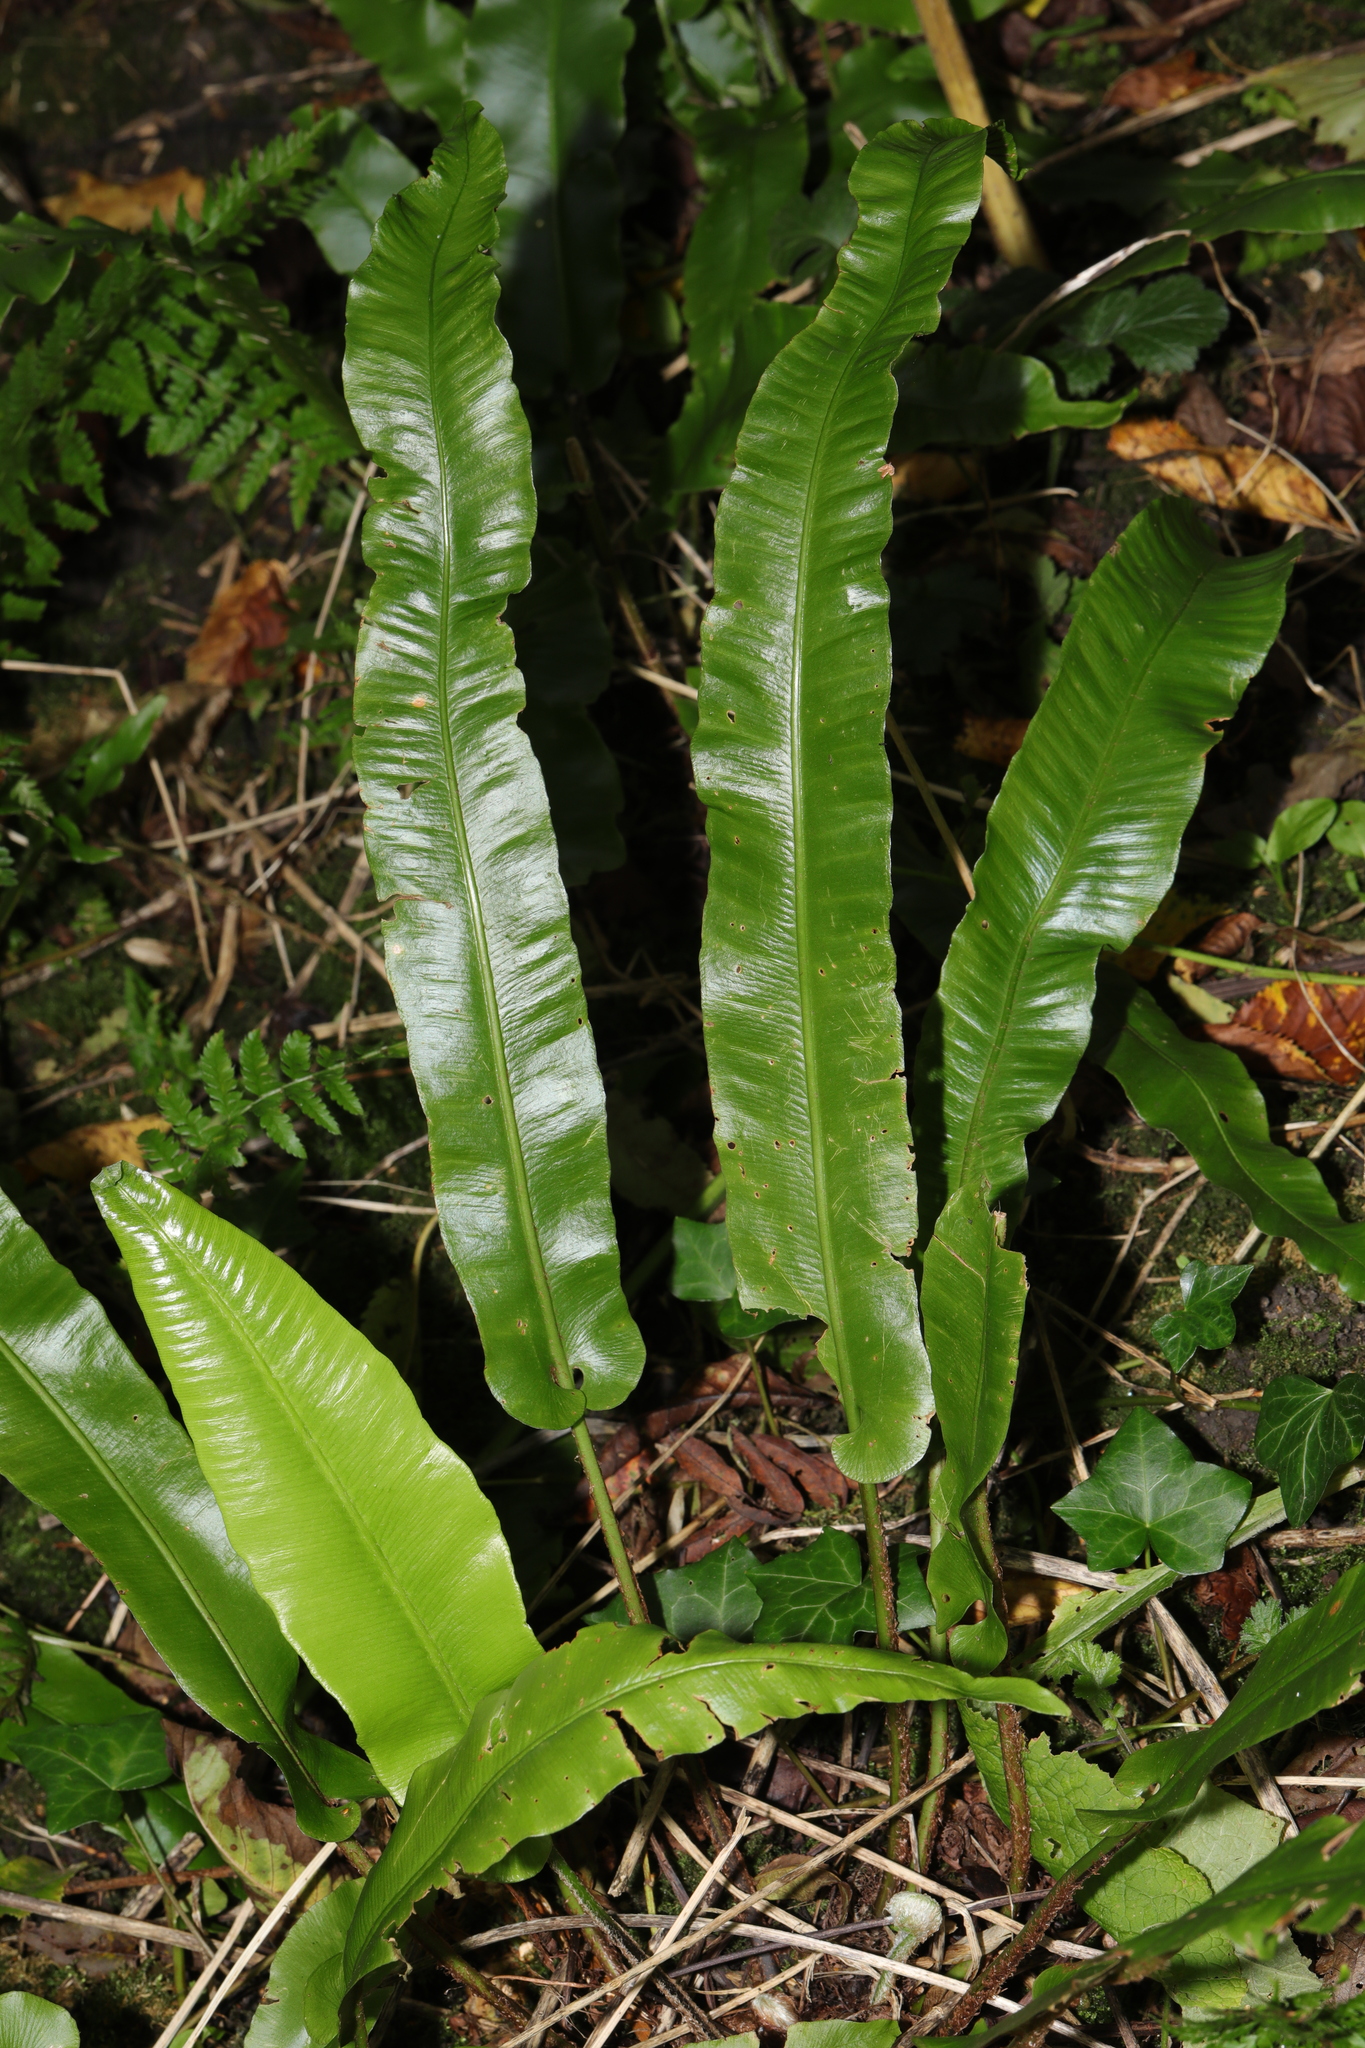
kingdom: Plantae
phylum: Tracheophyta
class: Polypodiopsida
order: Polypodiales
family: Aspleniaceae
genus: Asplenium
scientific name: Asplenium scolopendrium
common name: Hart's-tongue fern
